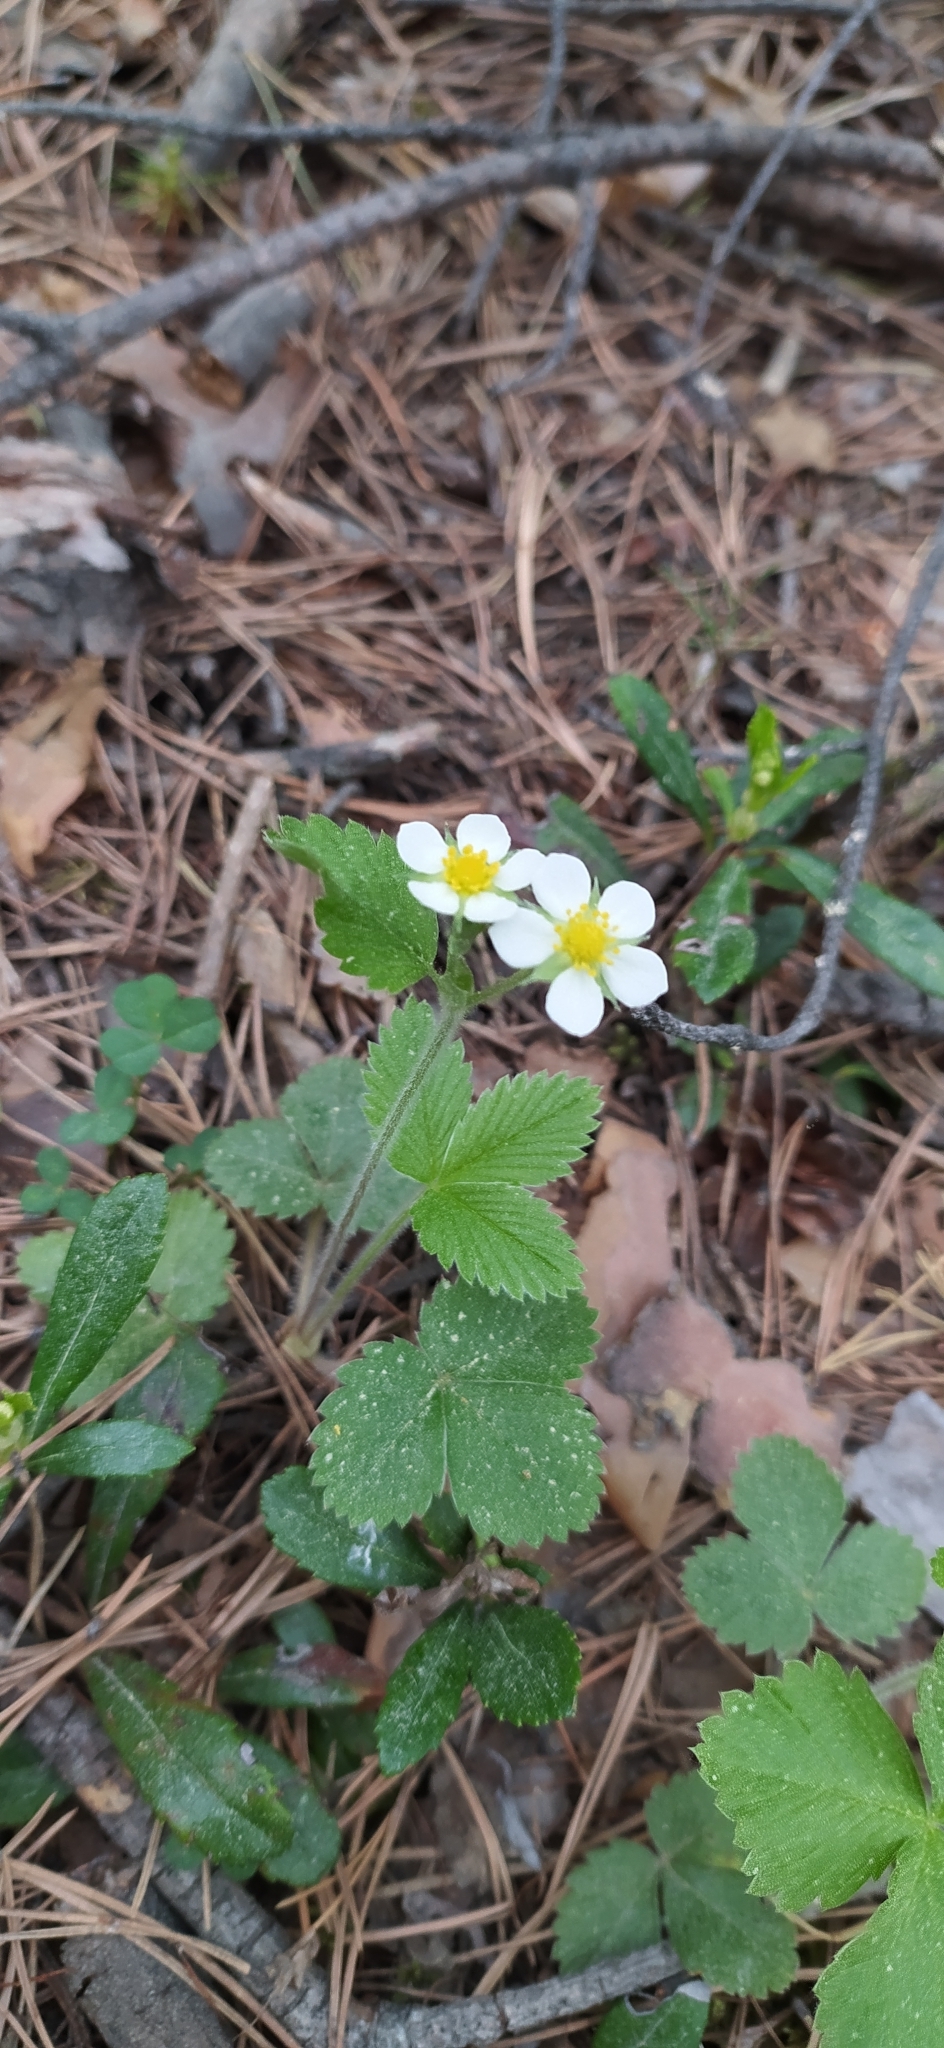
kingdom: Plantae
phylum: Tracheophyta
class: Magnoliopsida
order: Rosales
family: Rosaceae
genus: Fragaria
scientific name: Fragaria vesca
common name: Wild strawberry
